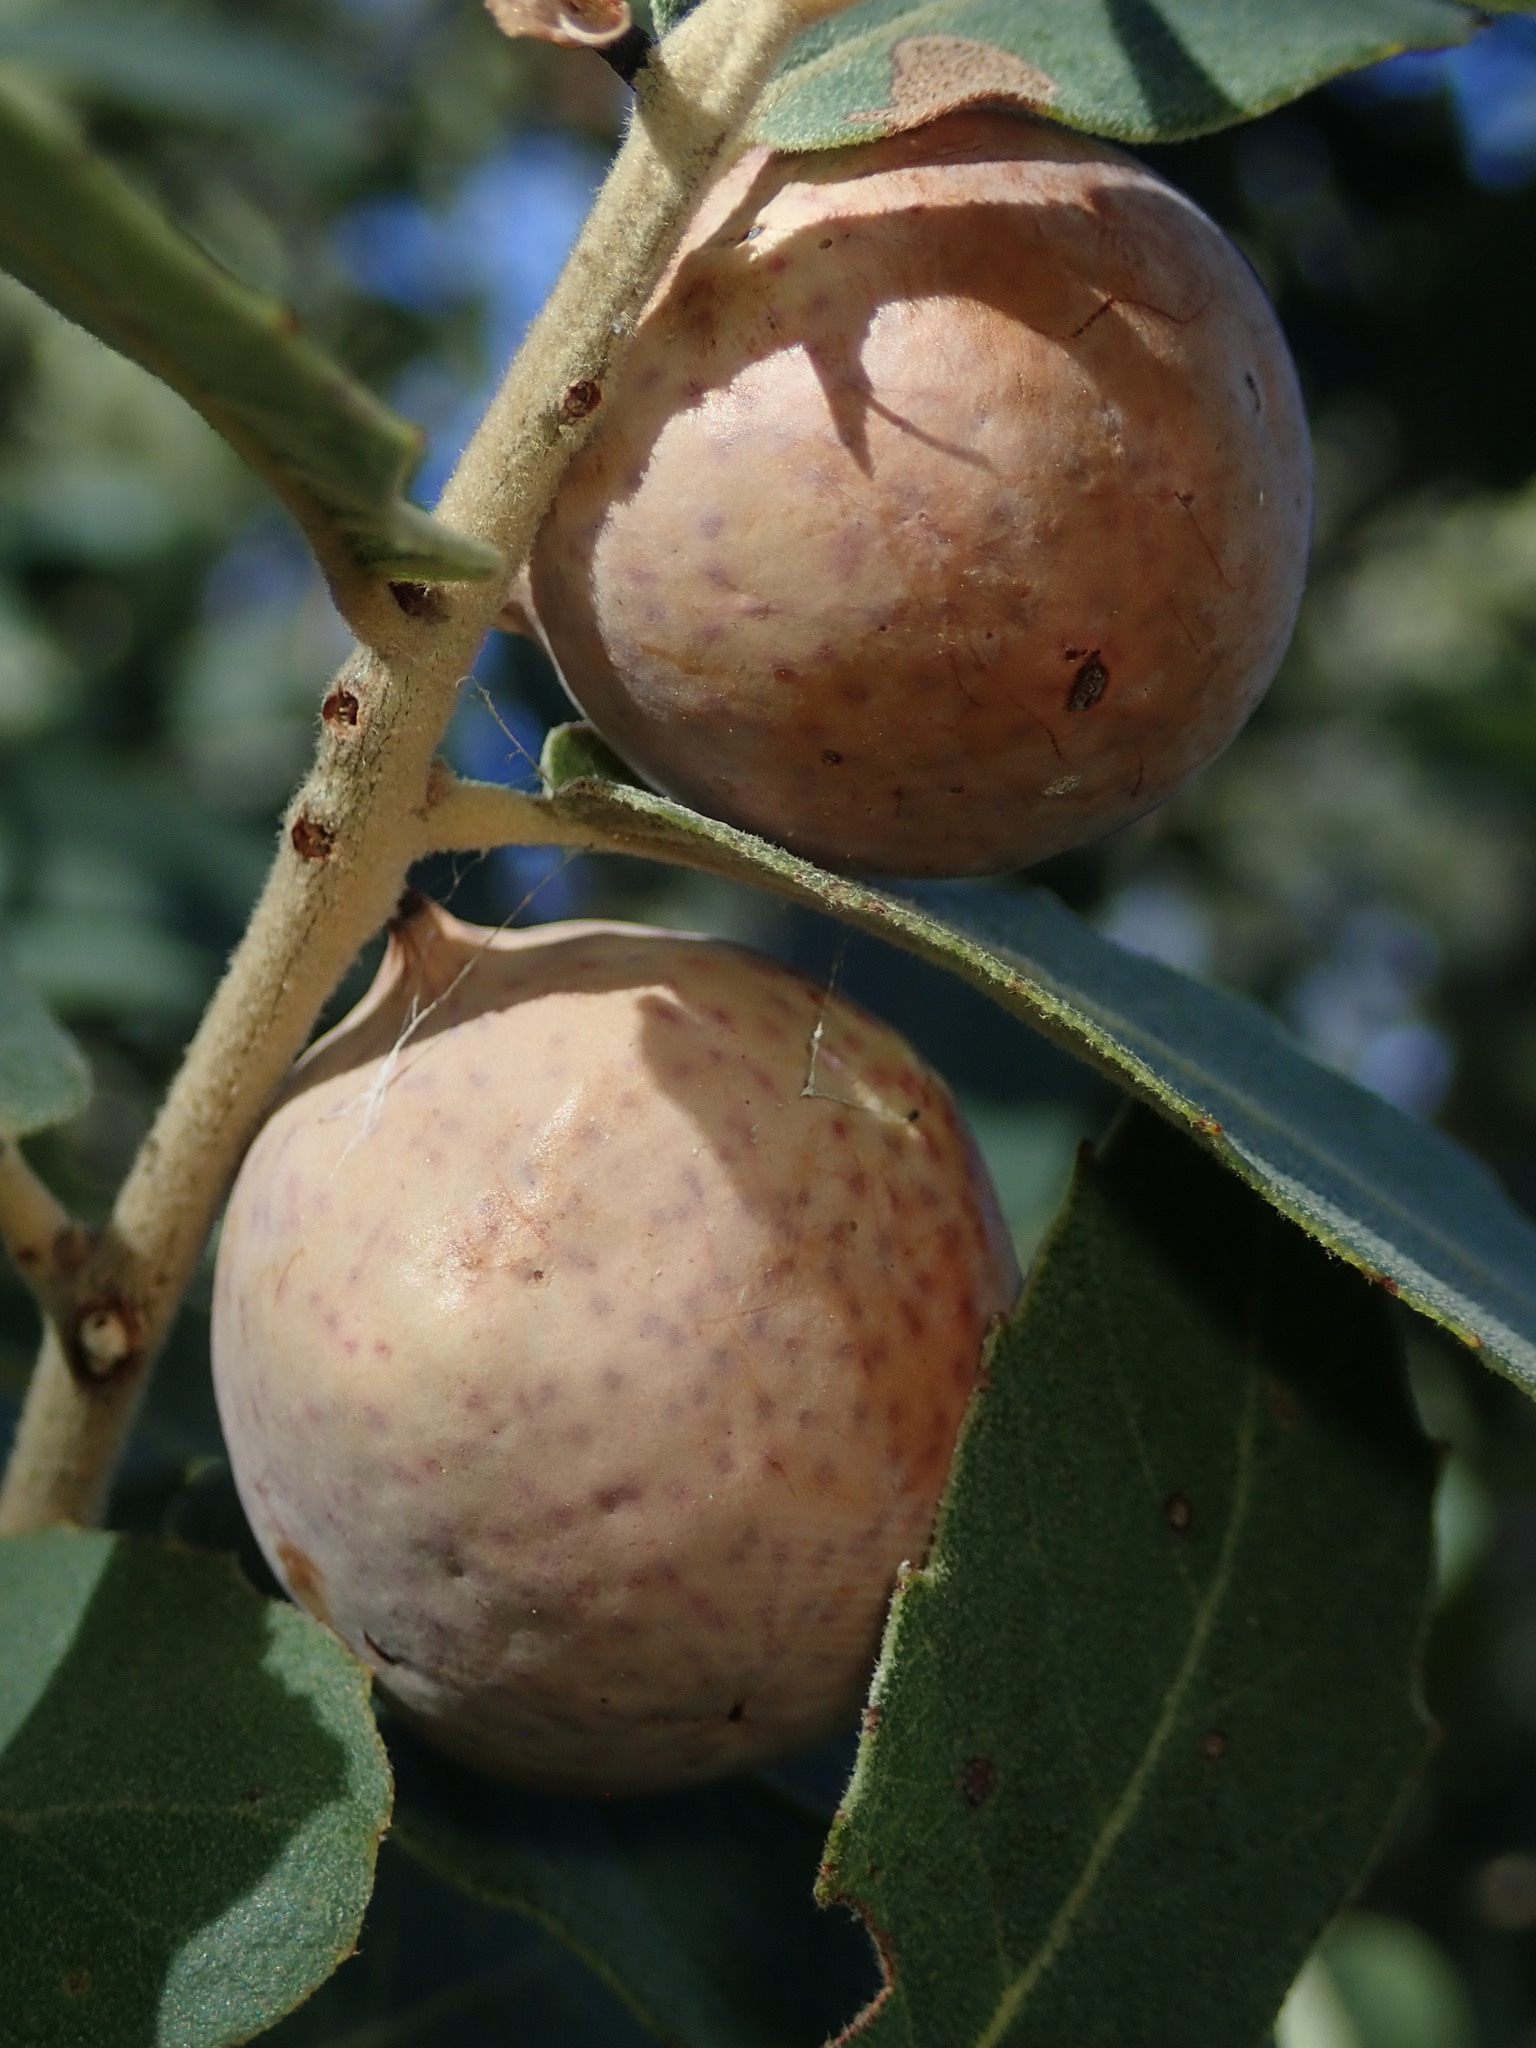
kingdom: Animalia
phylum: Arthropoda
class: Insecta
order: Hymenoptera
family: Cynipidae
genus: Atrusca
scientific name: Atrusca
